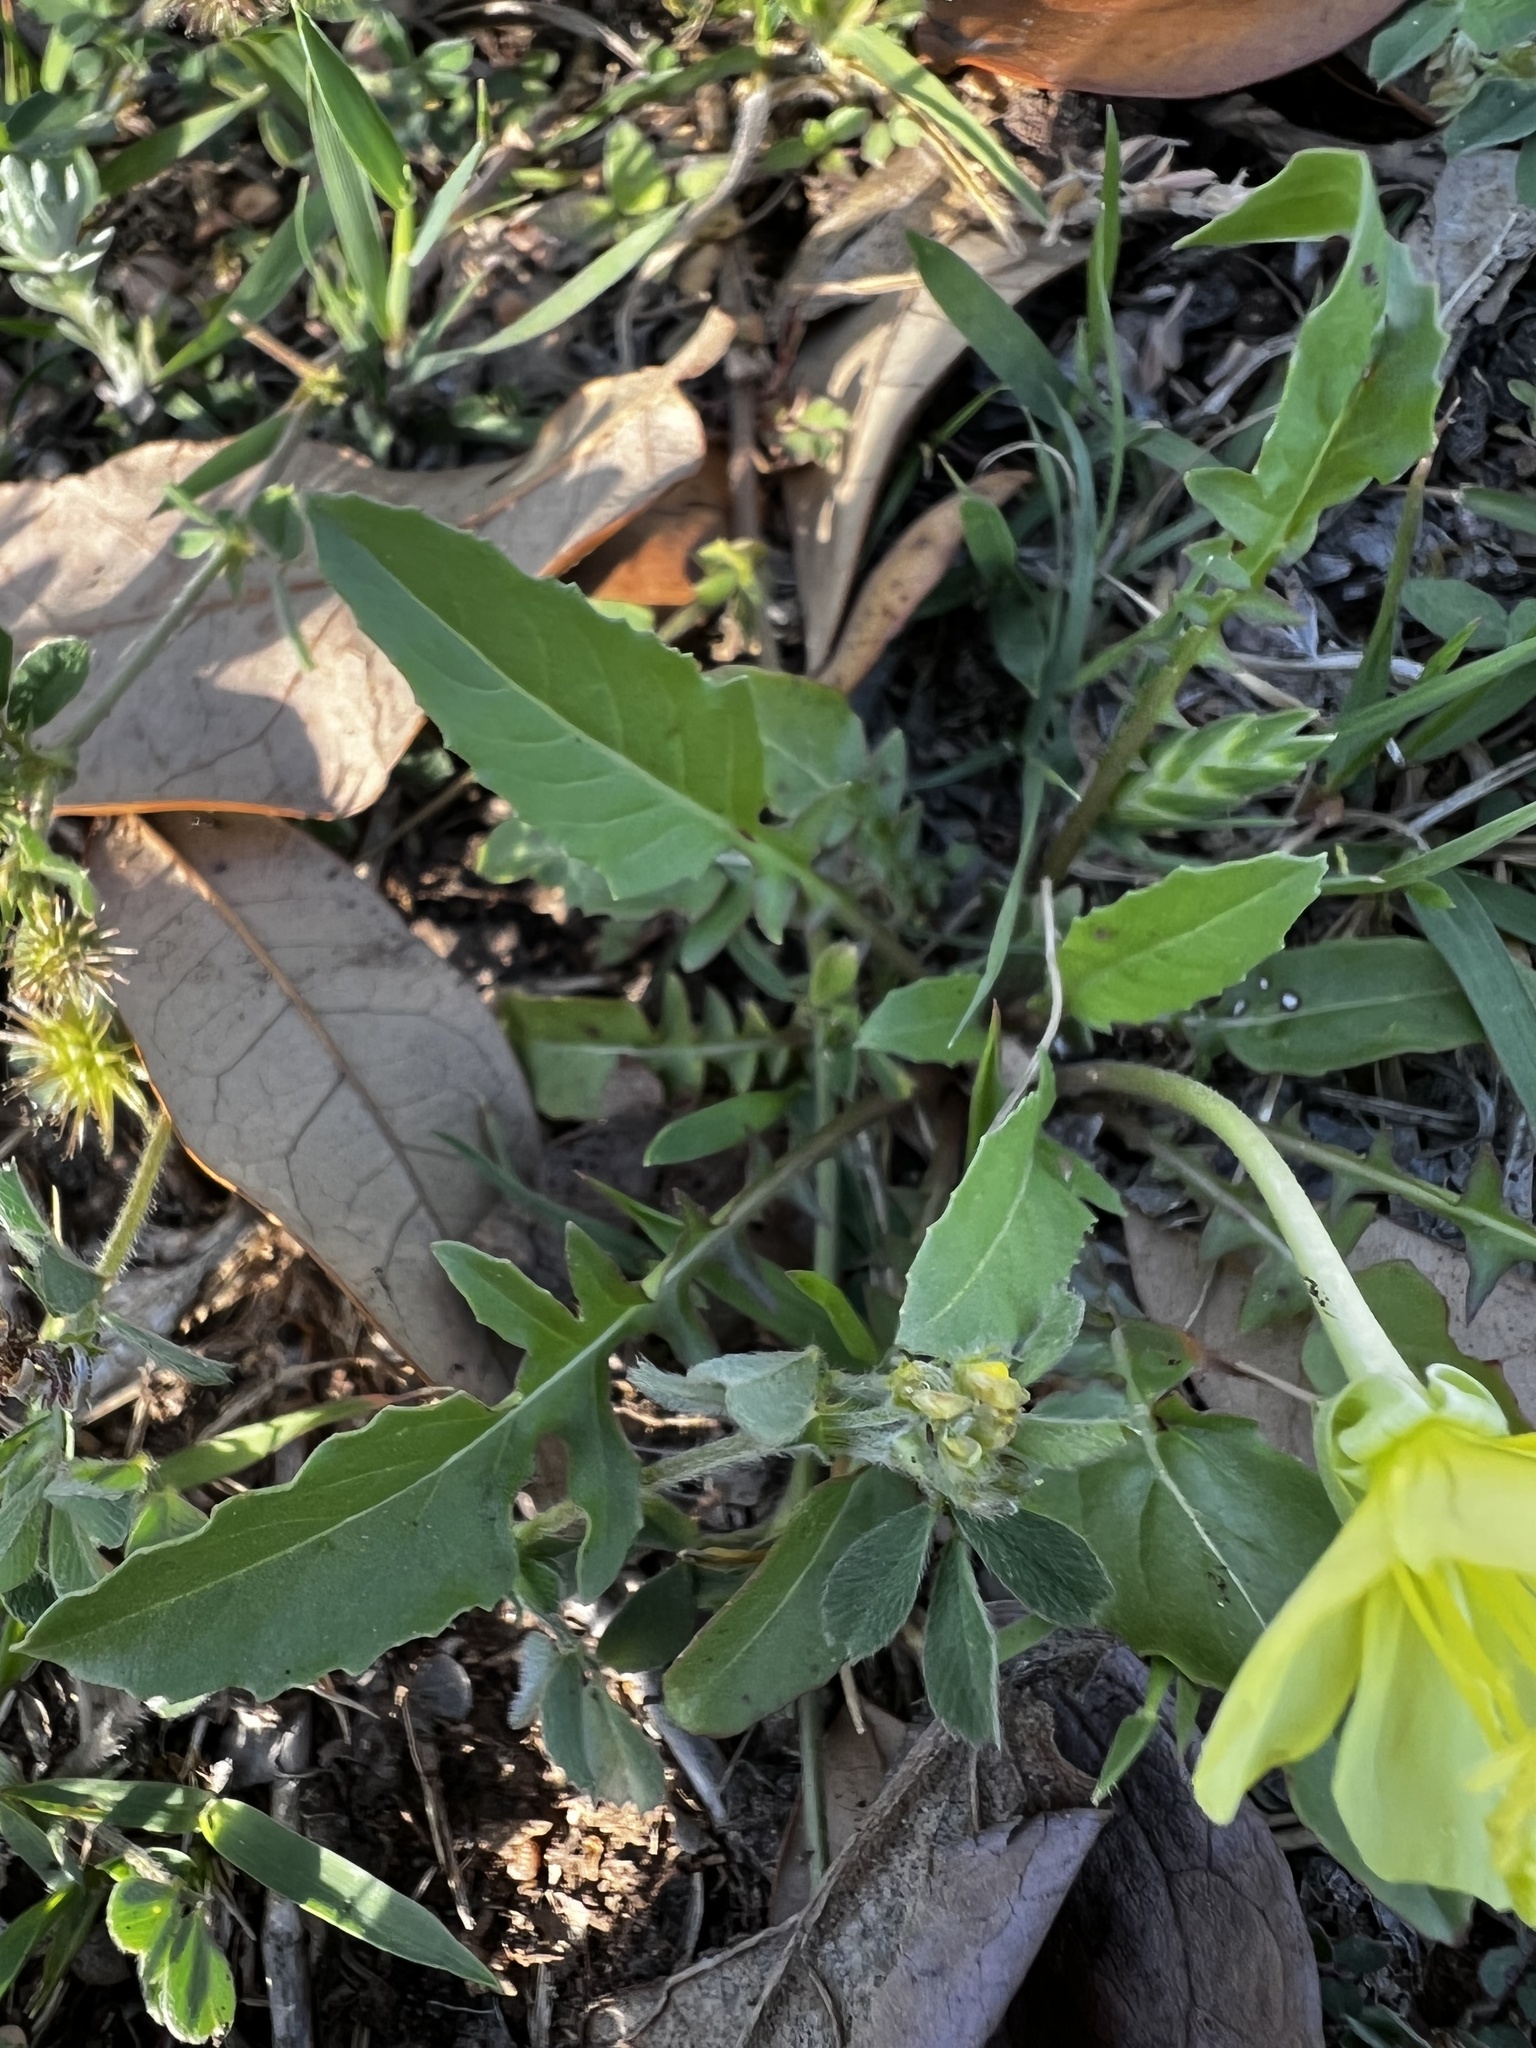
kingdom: Plantae
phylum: Tracheophyta
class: Magnoliopsida
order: Myrtales
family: Onagraceae
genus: Oenothera
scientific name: Oenothera triloba
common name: Sessile evening-primrose
